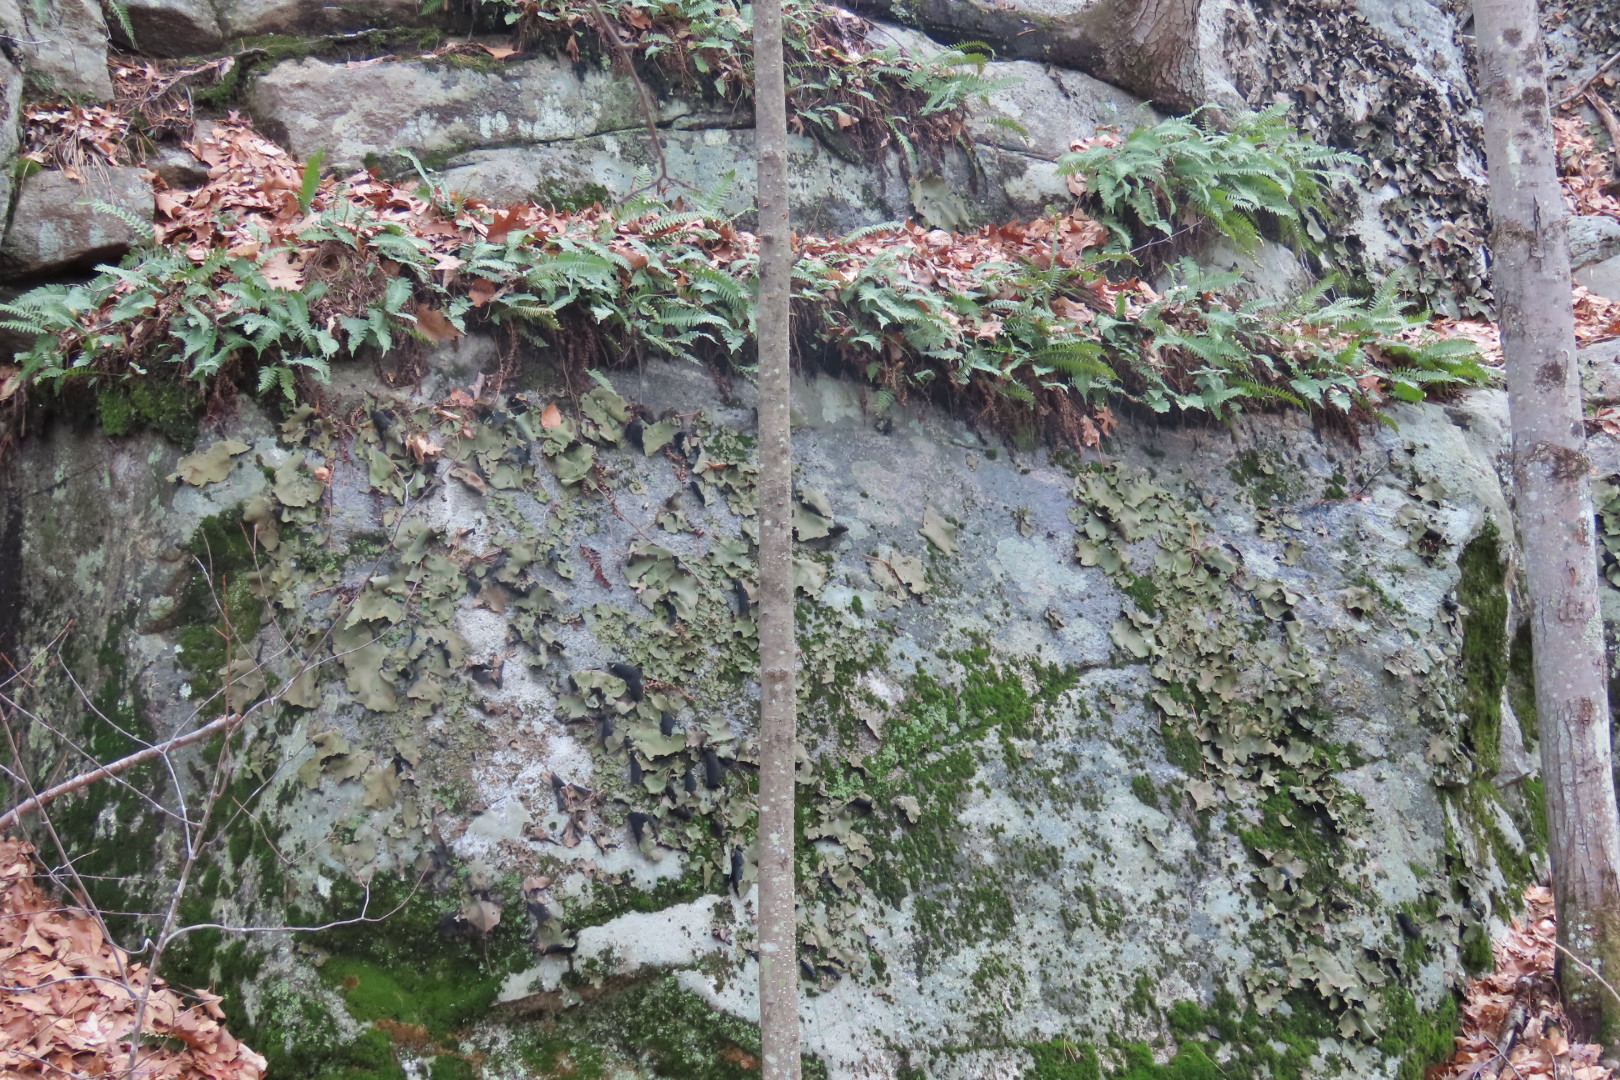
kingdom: Fungi
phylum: Ascomycota
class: Lecanoromycetes
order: Umbilicariales
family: Umbilicariaceae
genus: Umbilicaria
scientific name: Umbilicaria mammulata
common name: Smooth rock tripe
